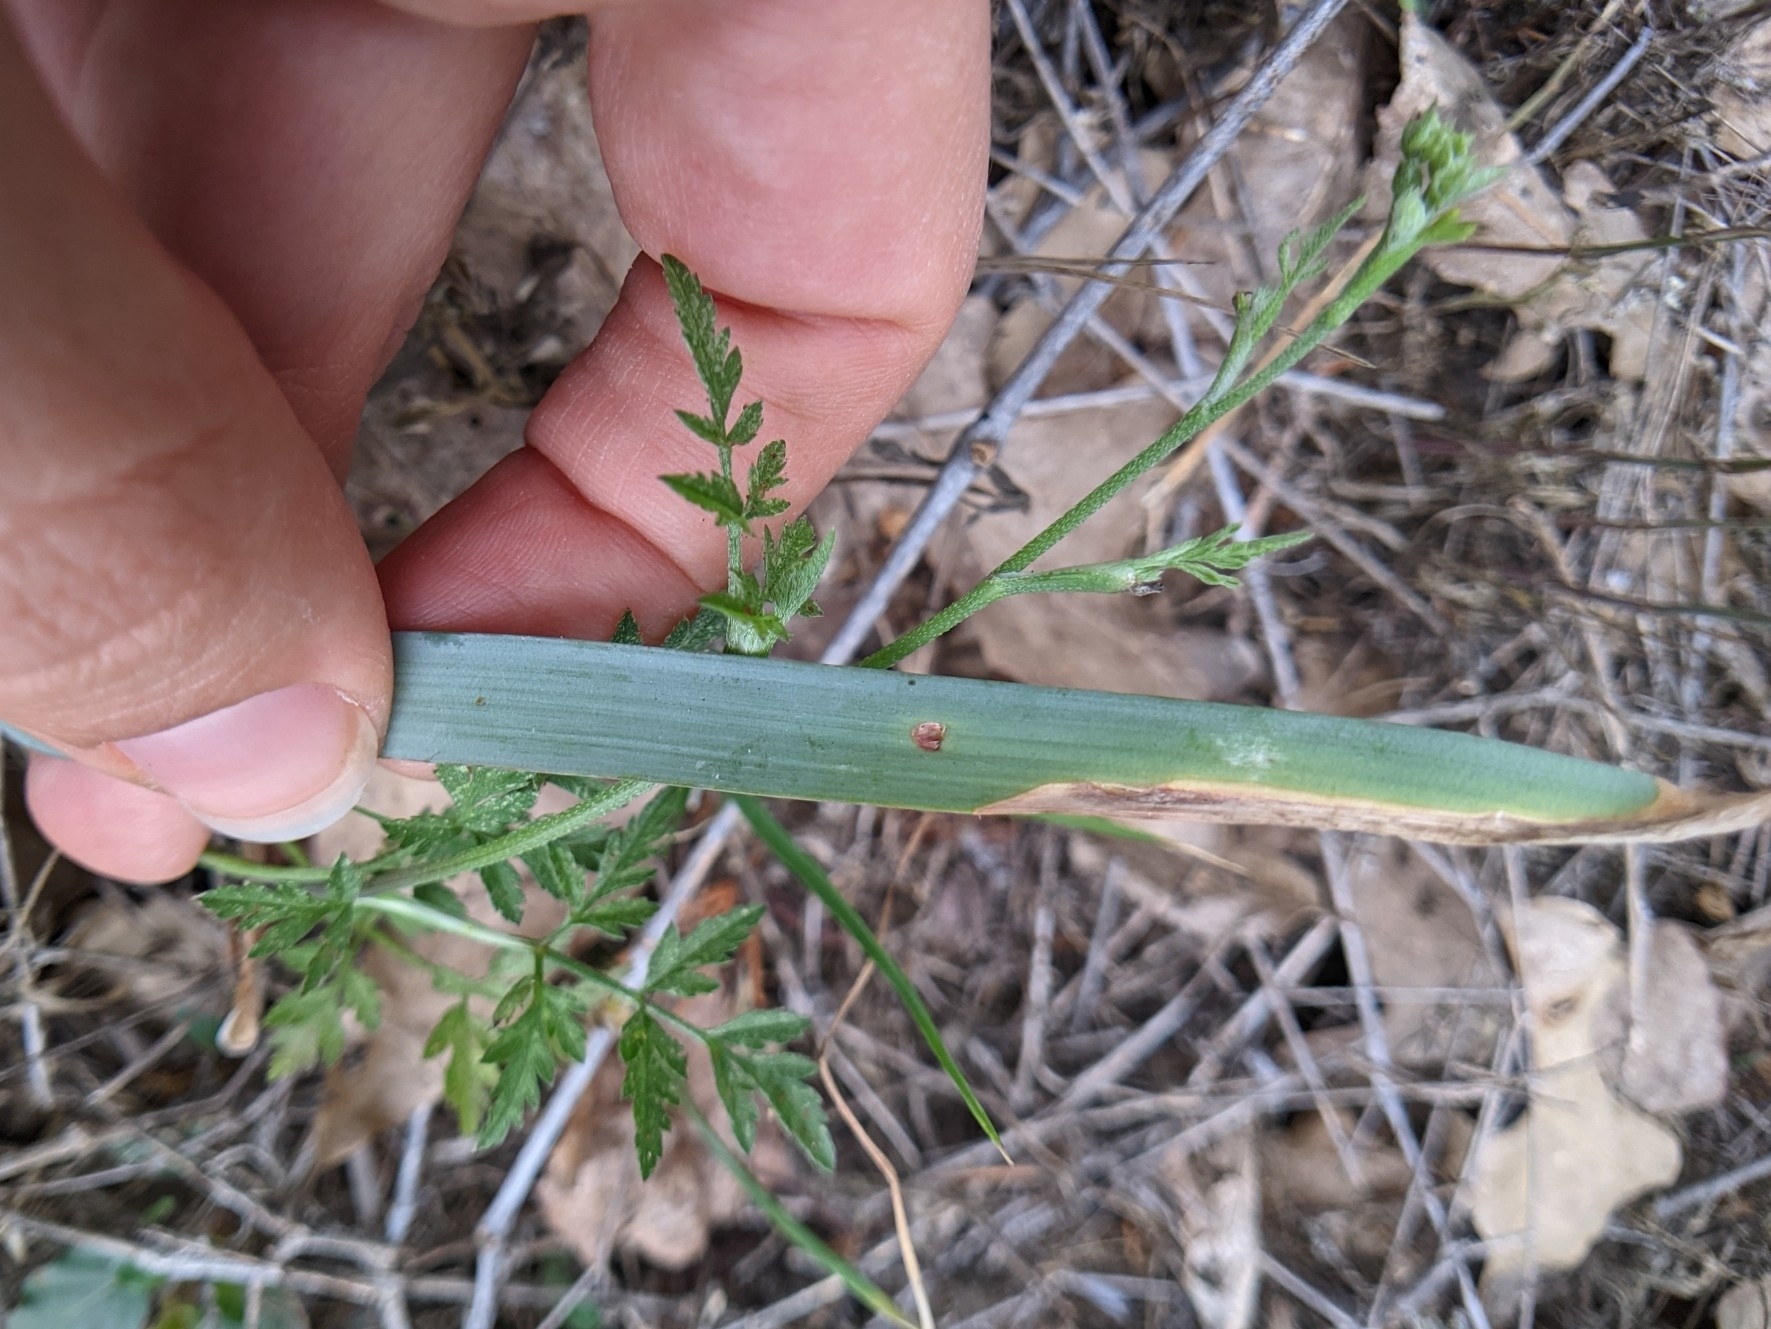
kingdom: Plantae
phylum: Tracheophyta
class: Liliopsida
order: Asparagales
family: Amaryllidaceae
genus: Zephyranthes
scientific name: Zephyranthes drummondii
